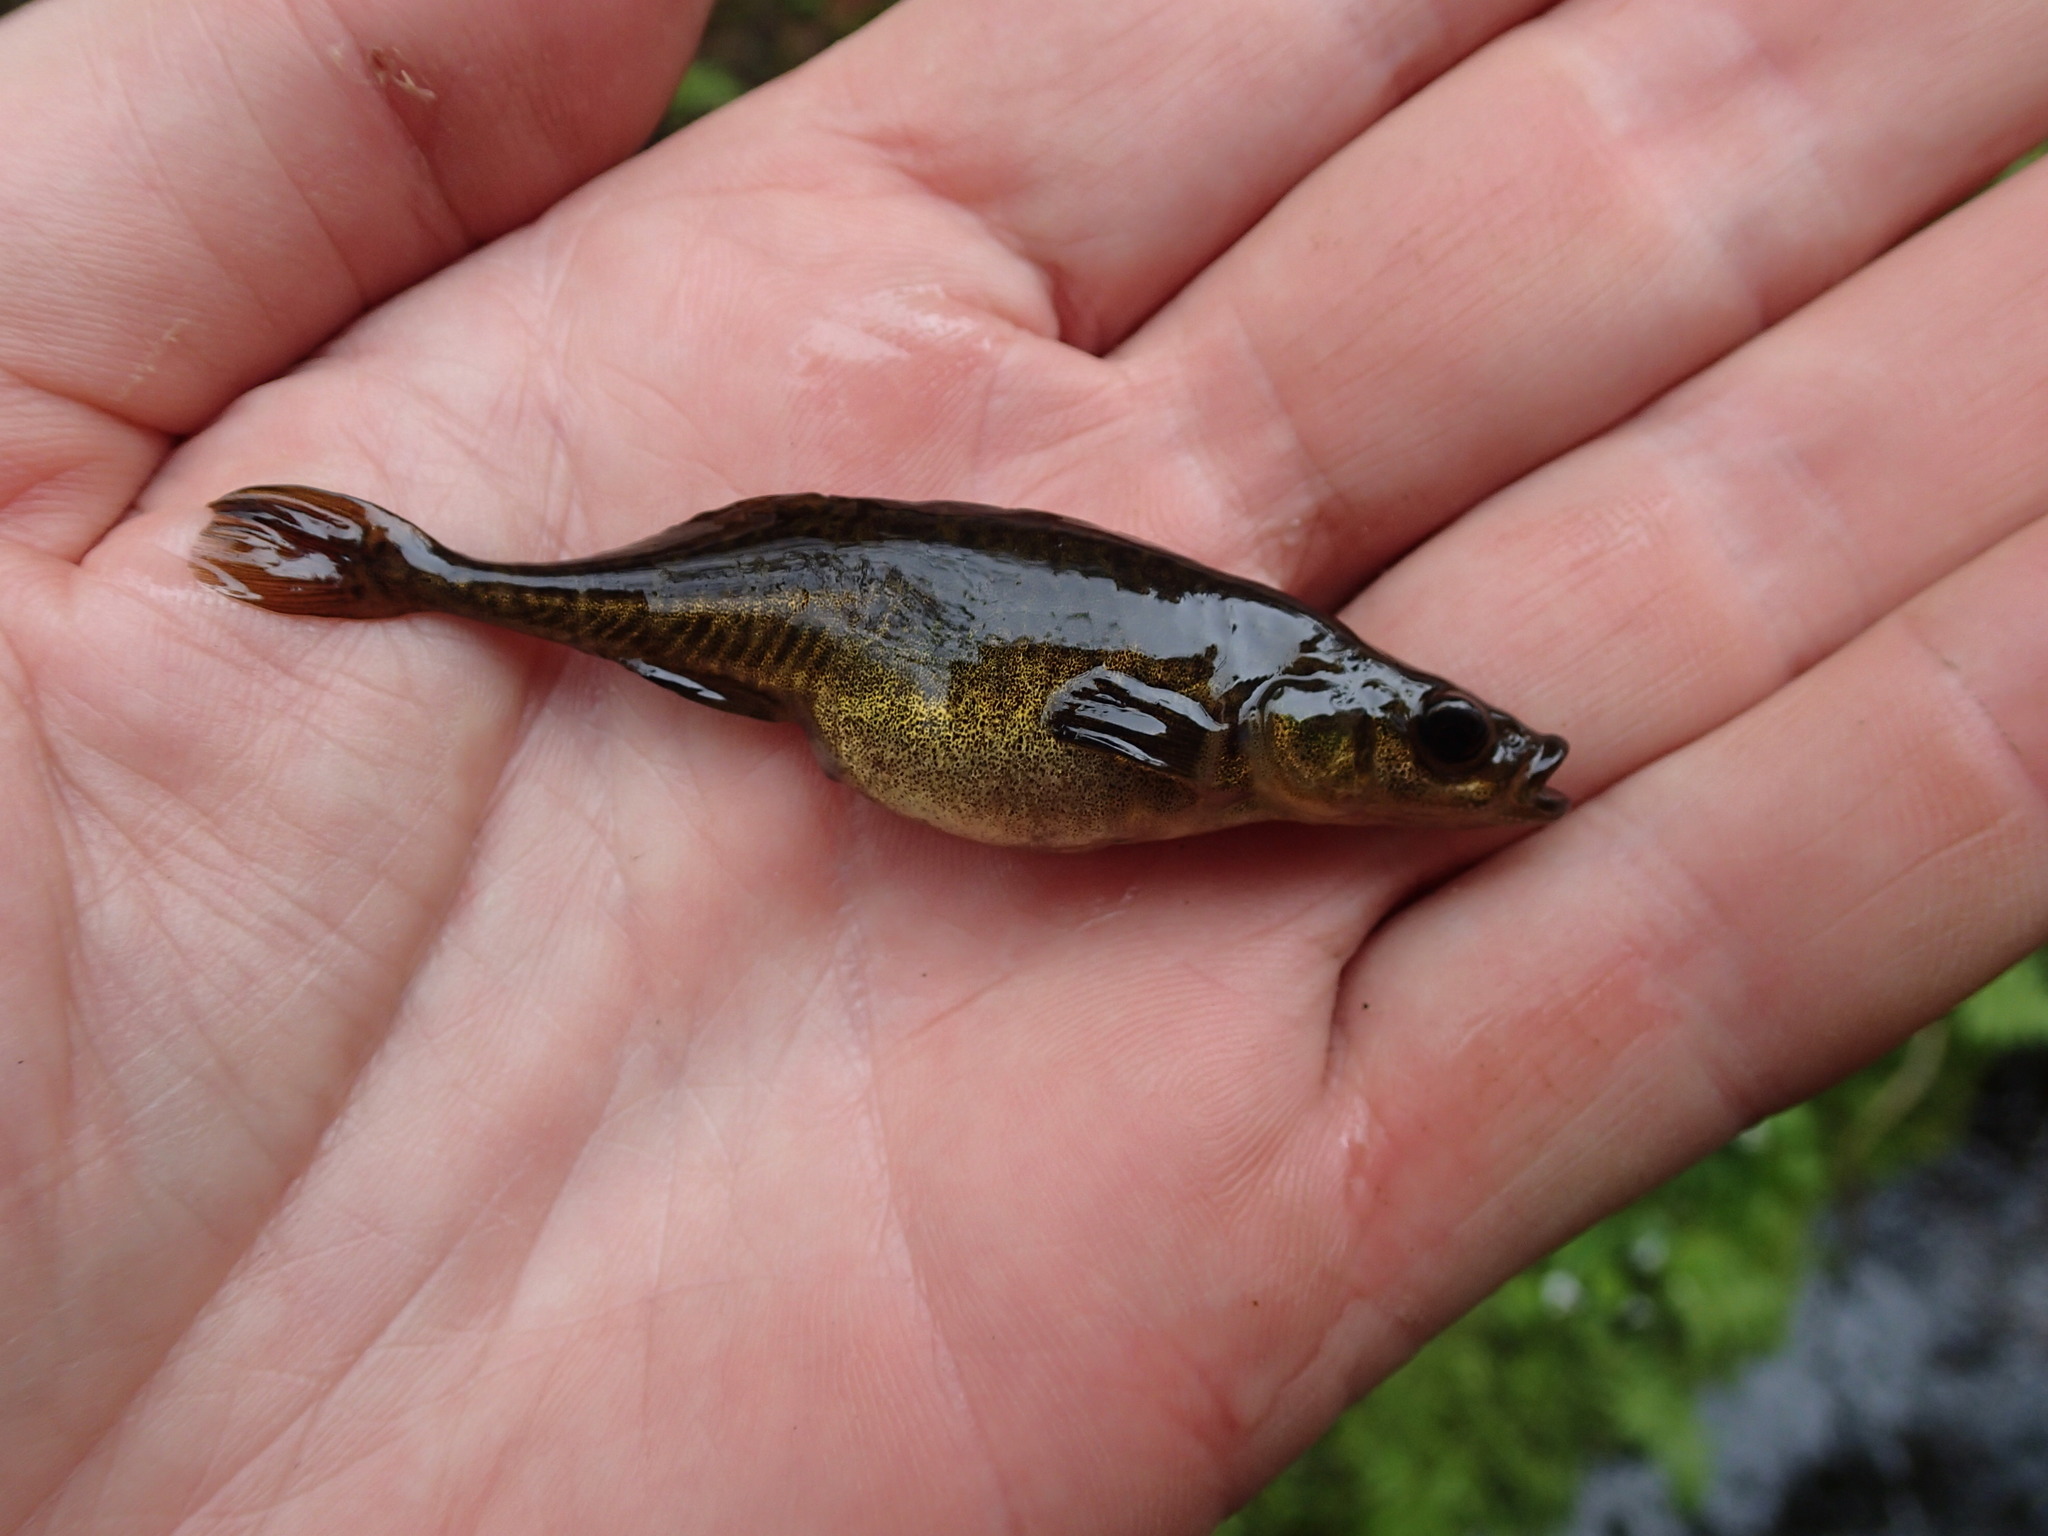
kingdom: Animalia
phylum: Chordata
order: Gasterosteiformes
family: Gasterosteidae
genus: Culaea
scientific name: Culaea inconstans
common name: Brook stickleback
